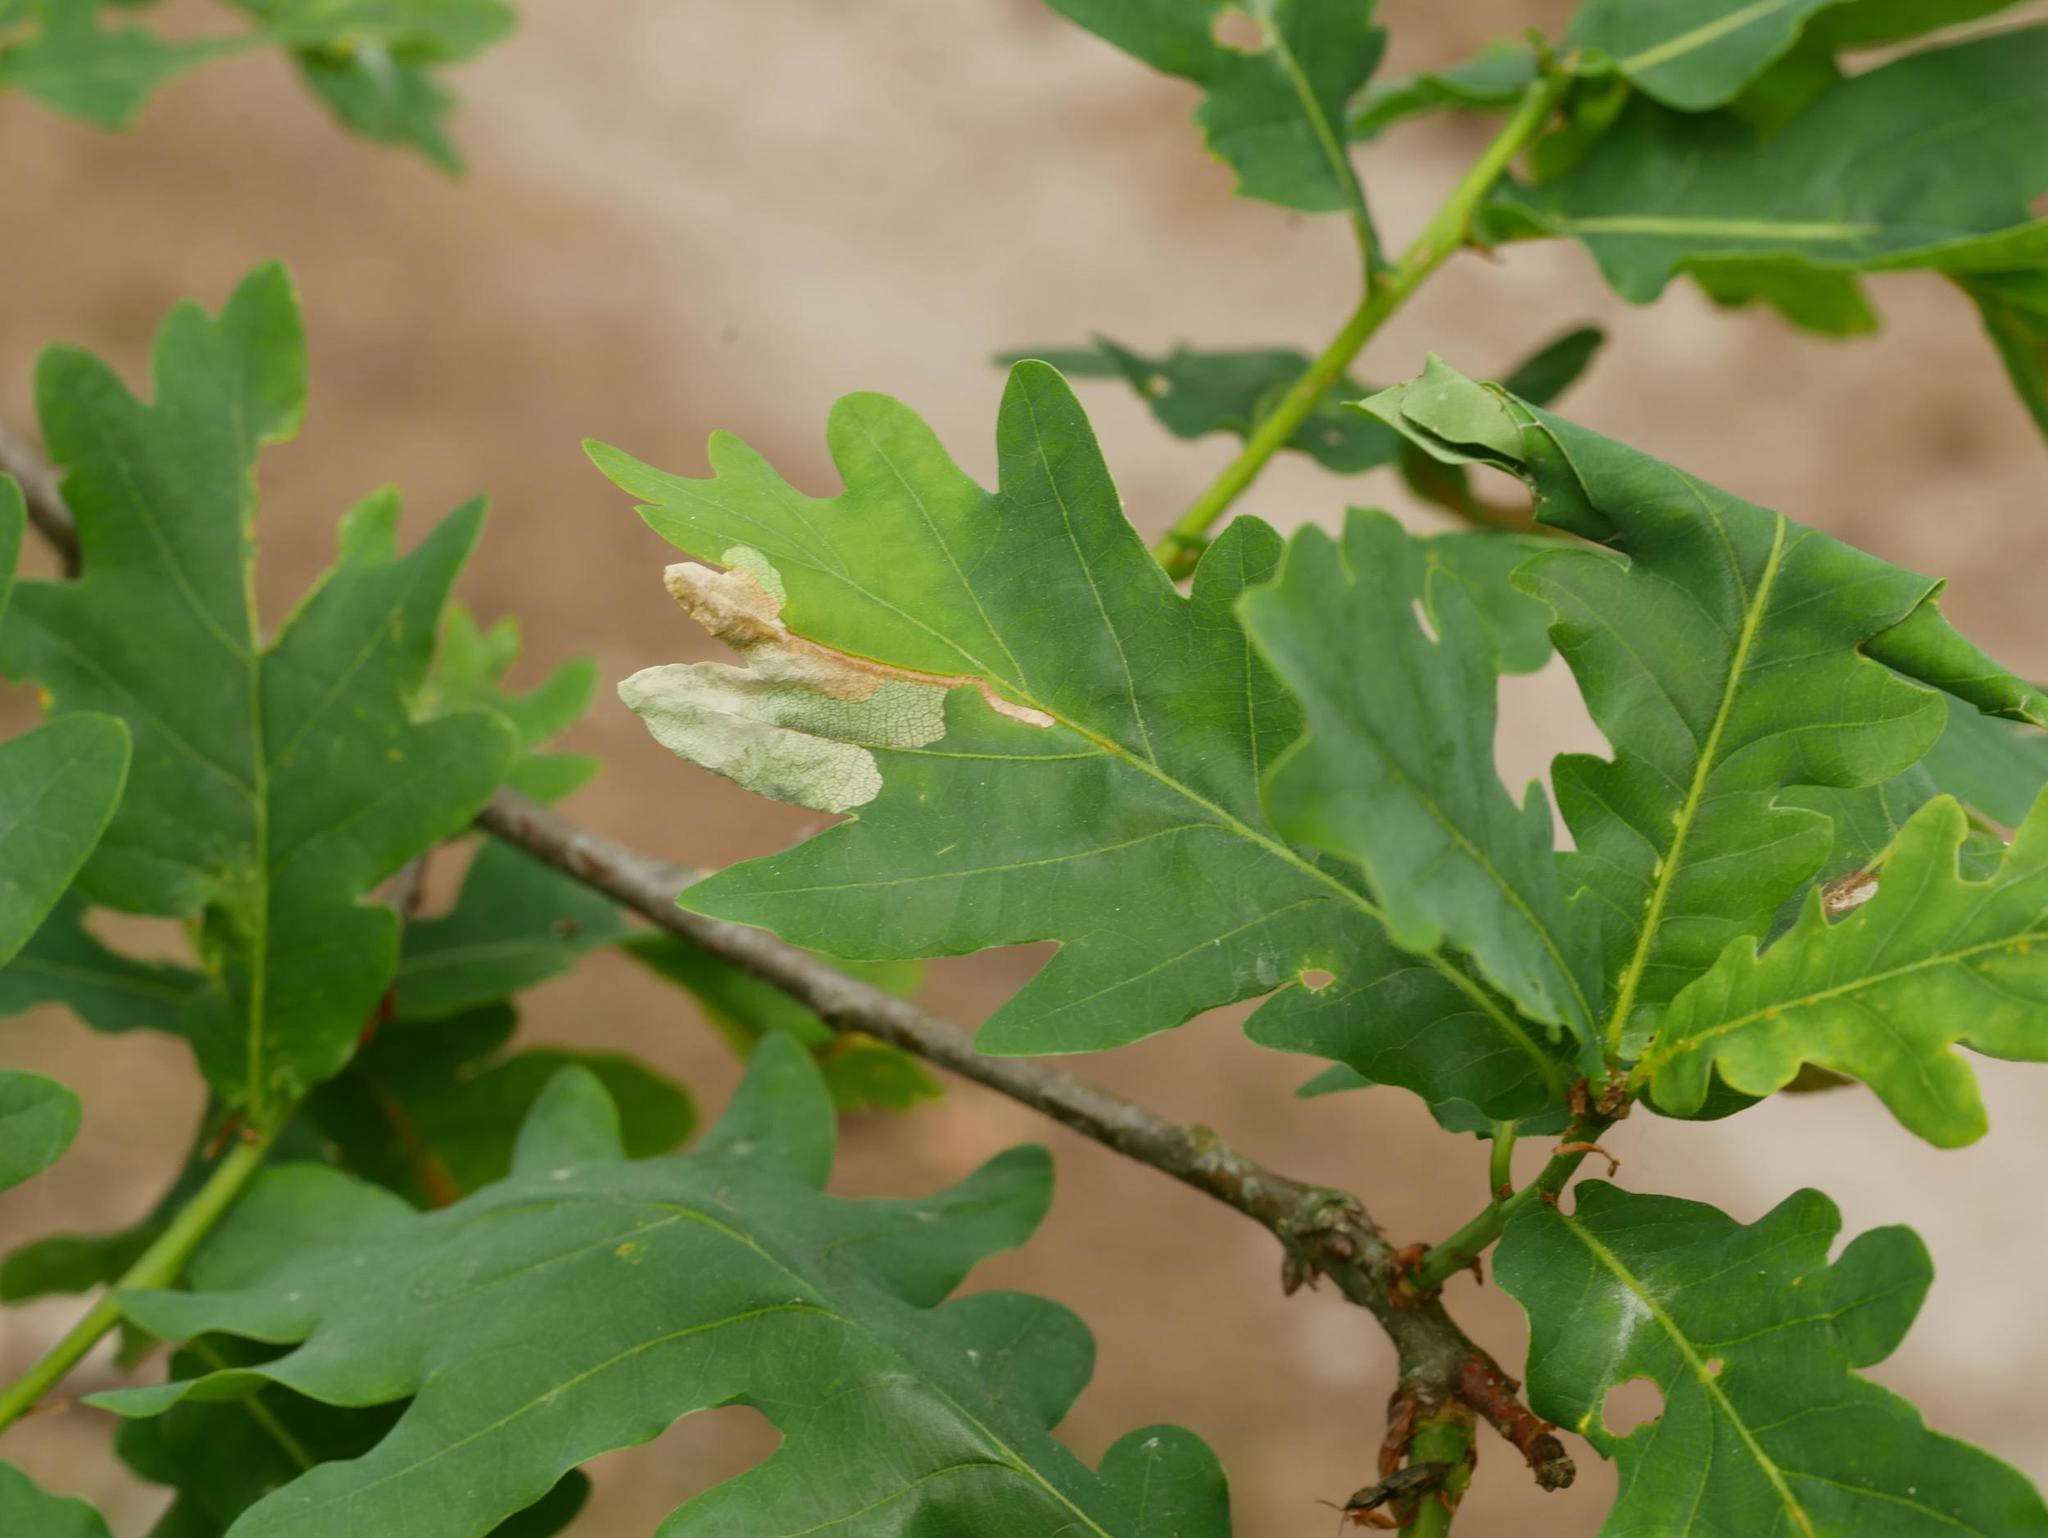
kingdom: Plantae
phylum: Tracheophyta
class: Magnoliopsida
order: Fagales
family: Fagaceae
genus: Quercus
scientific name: Quercus robur
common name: Pedunculate oak
